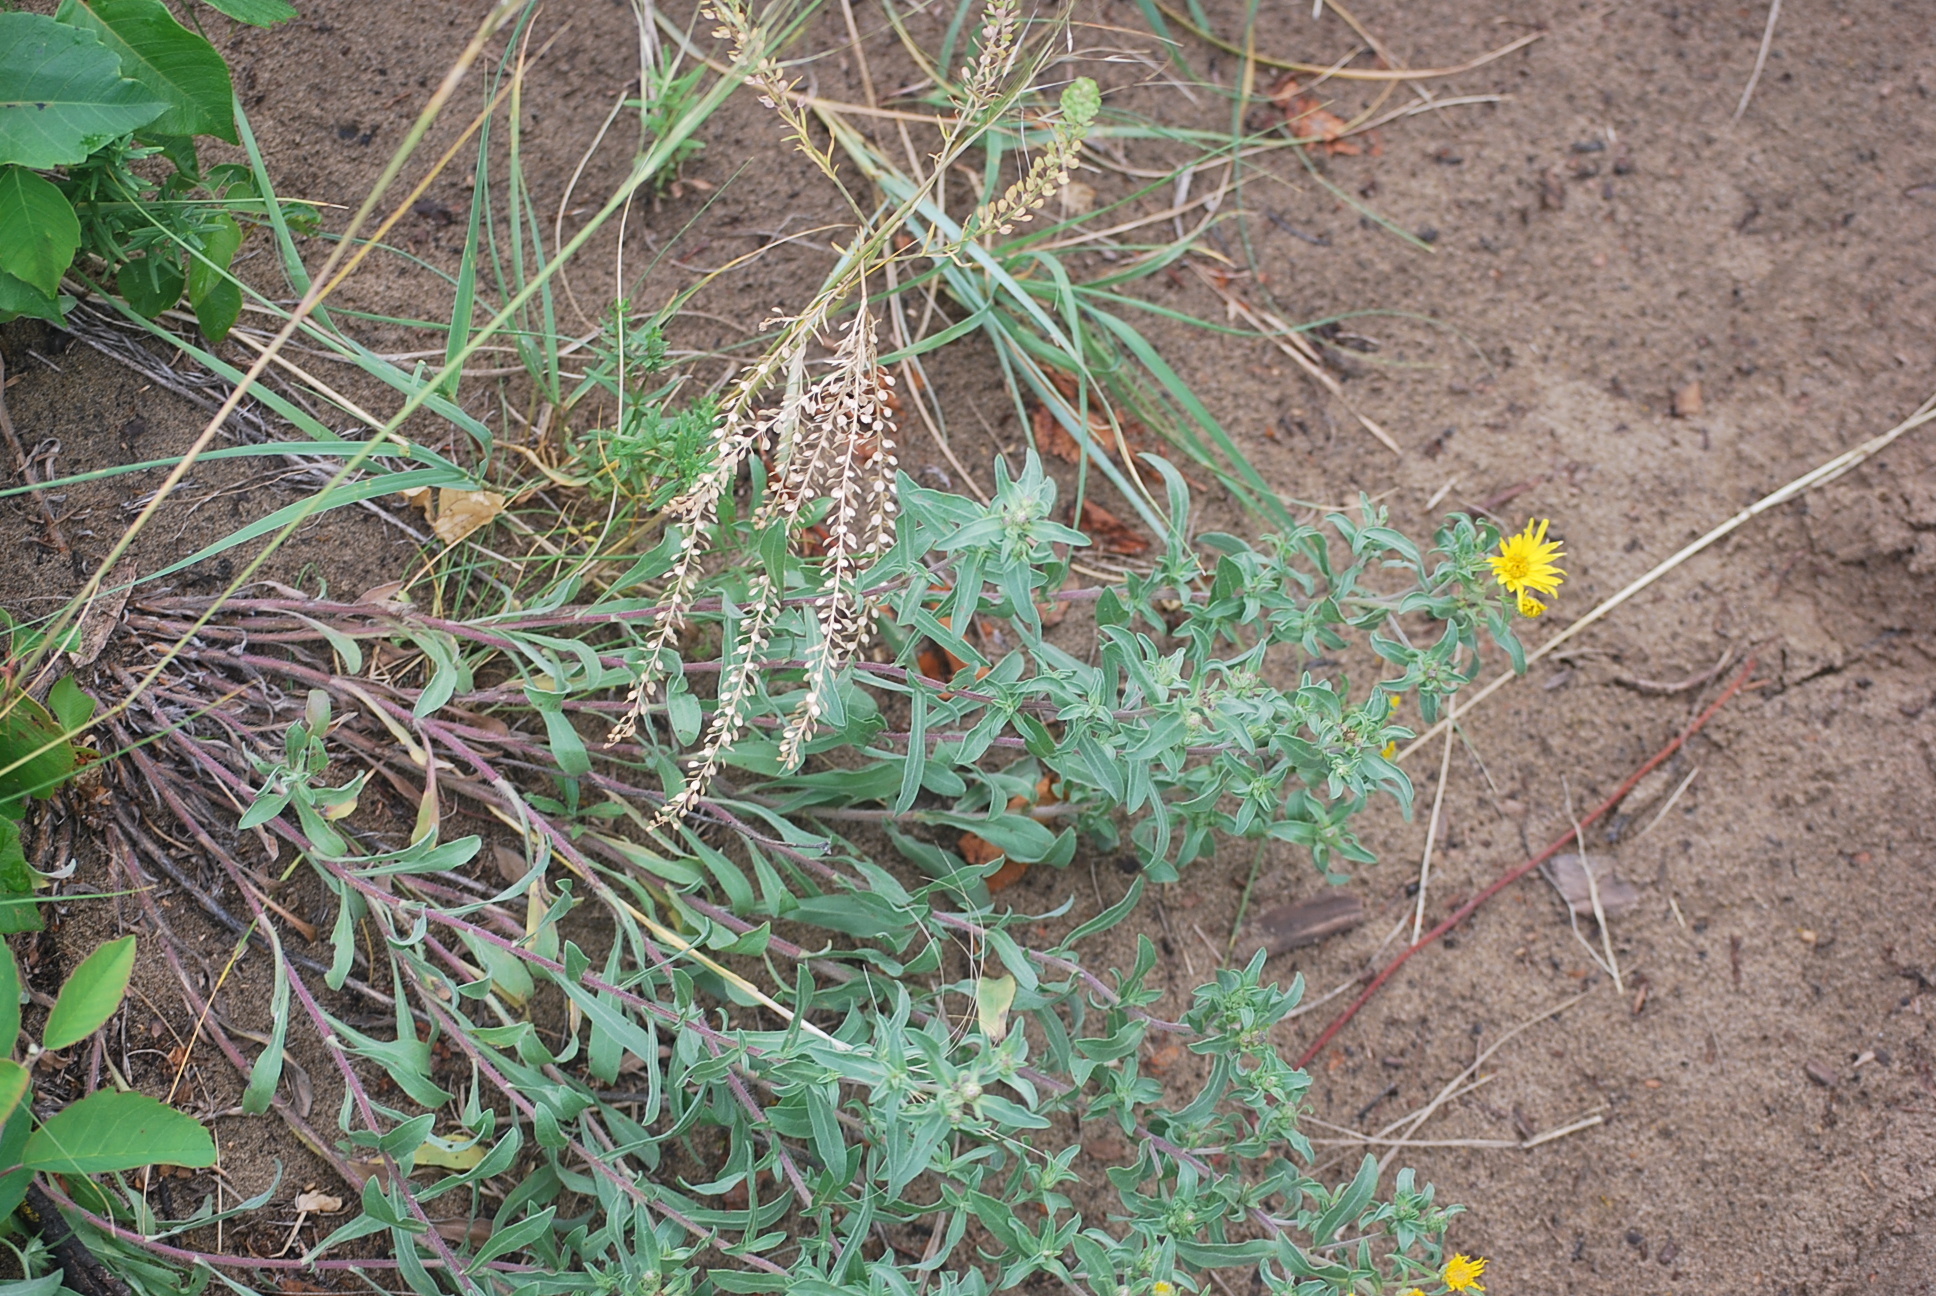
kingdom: Plantae
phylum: Tracheophyta
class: Magnoliopsida
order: Asterales
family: Asteraceae
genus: Heterotheca
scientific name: Heterotheca villosa
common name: Hairy false goldenaster
